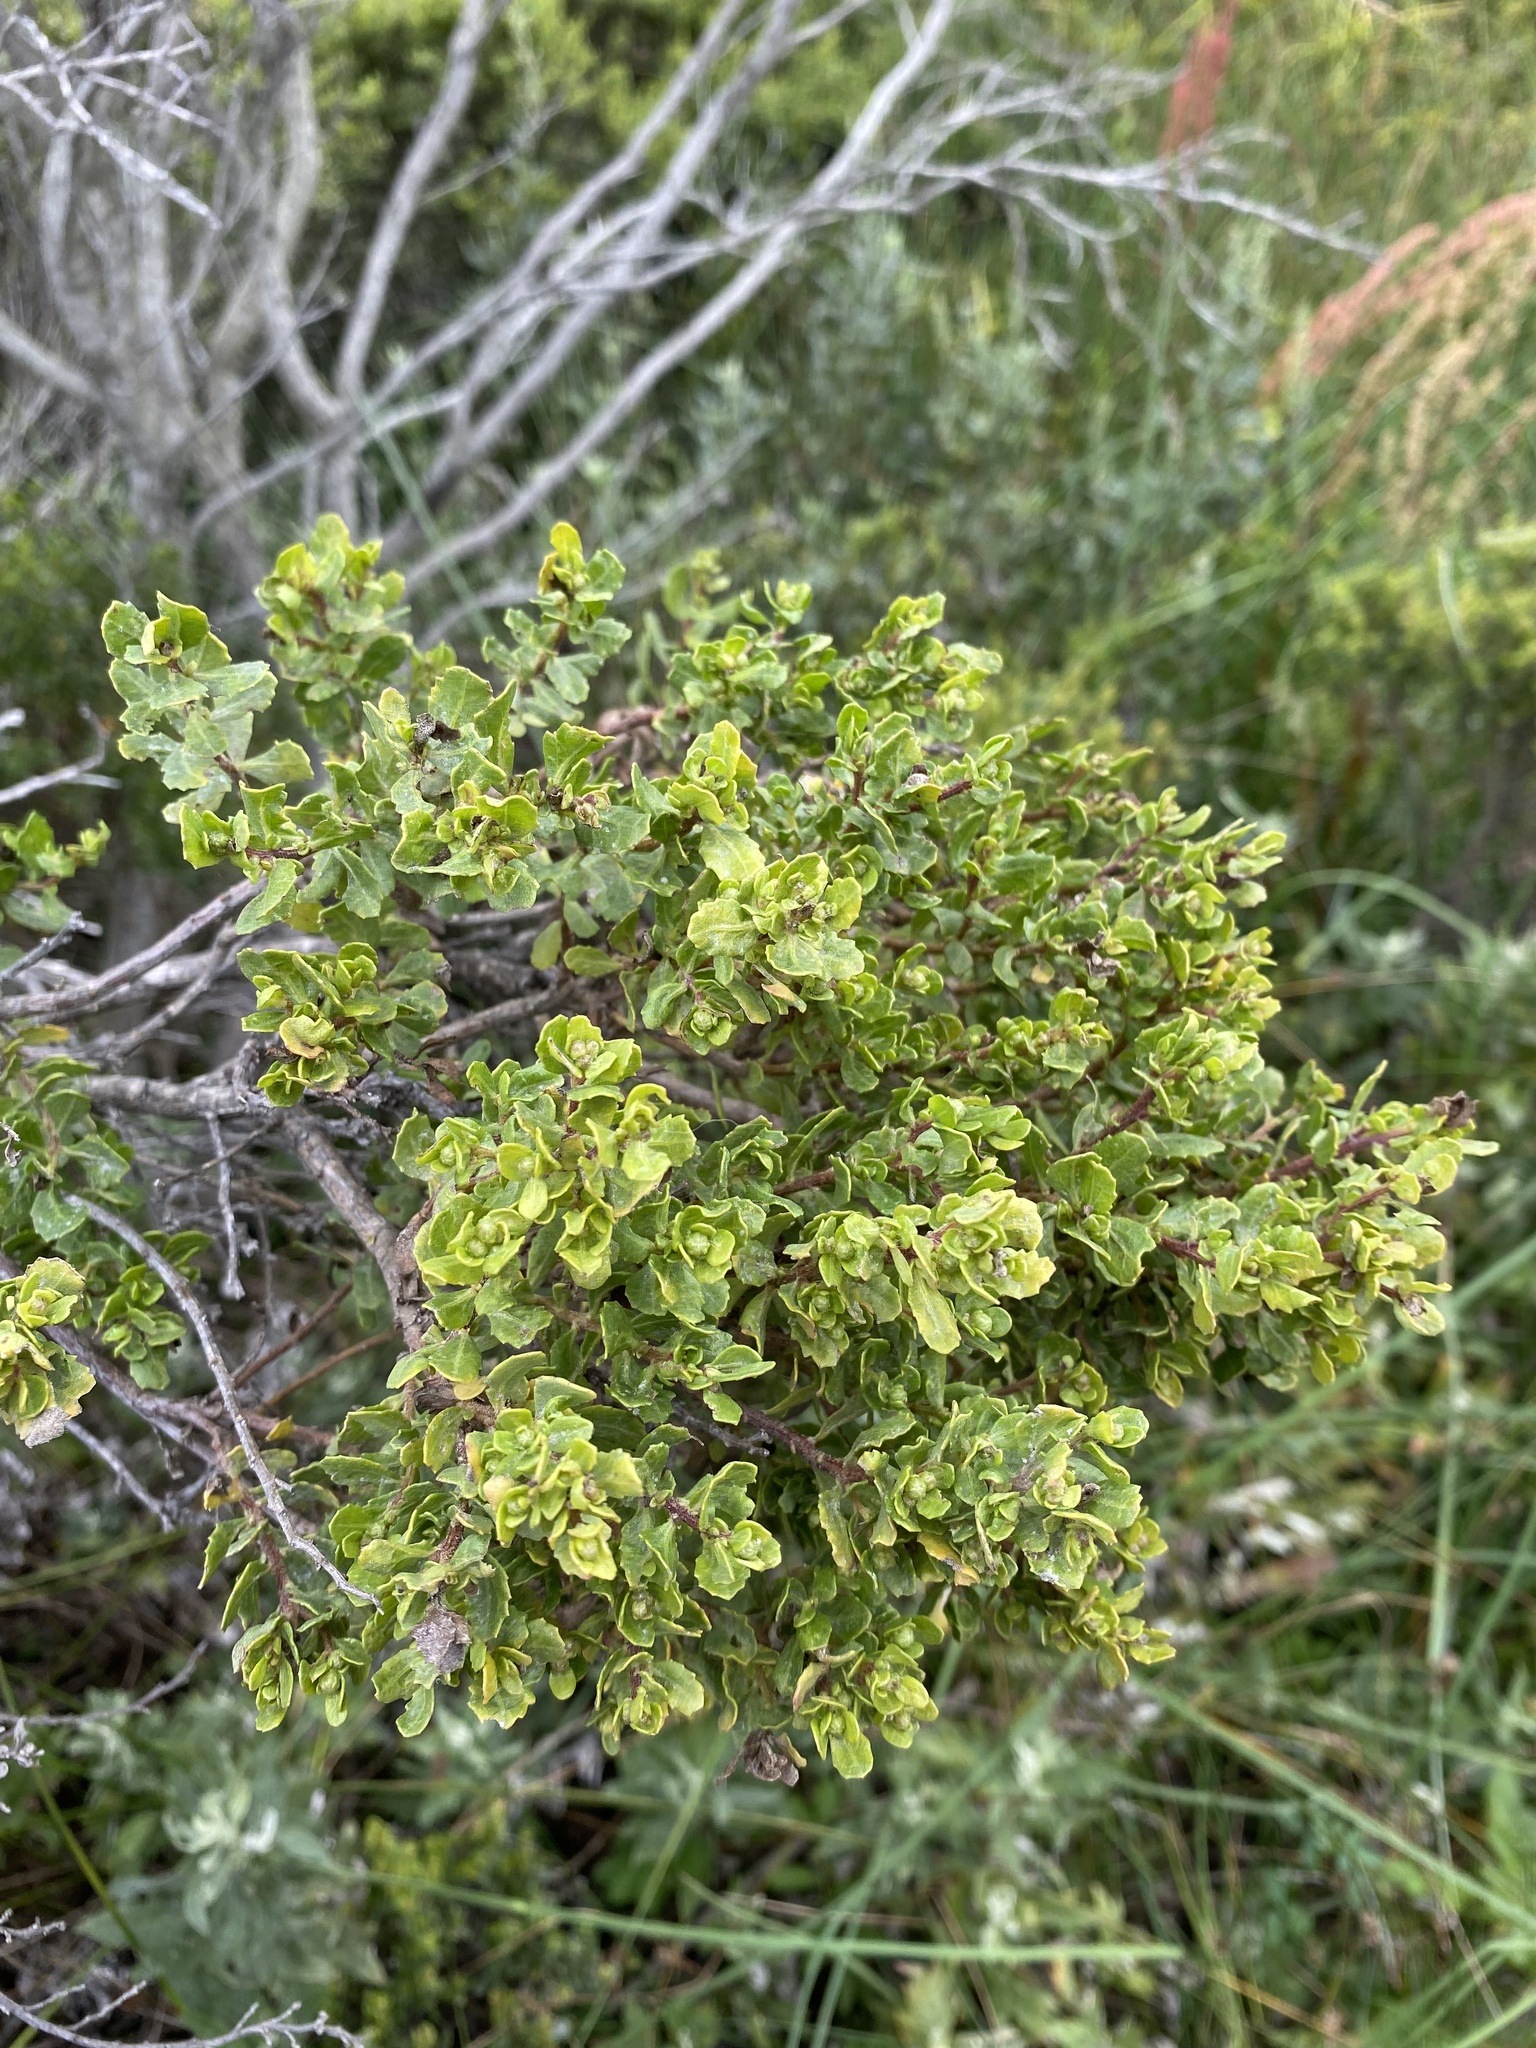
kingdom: Plantae
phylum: Tracheophyta
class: Magnoliopsida
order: Asterales
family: Asteraceae
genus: Baccharis
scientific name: Baccharis pilularis
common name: Coyotebrush
